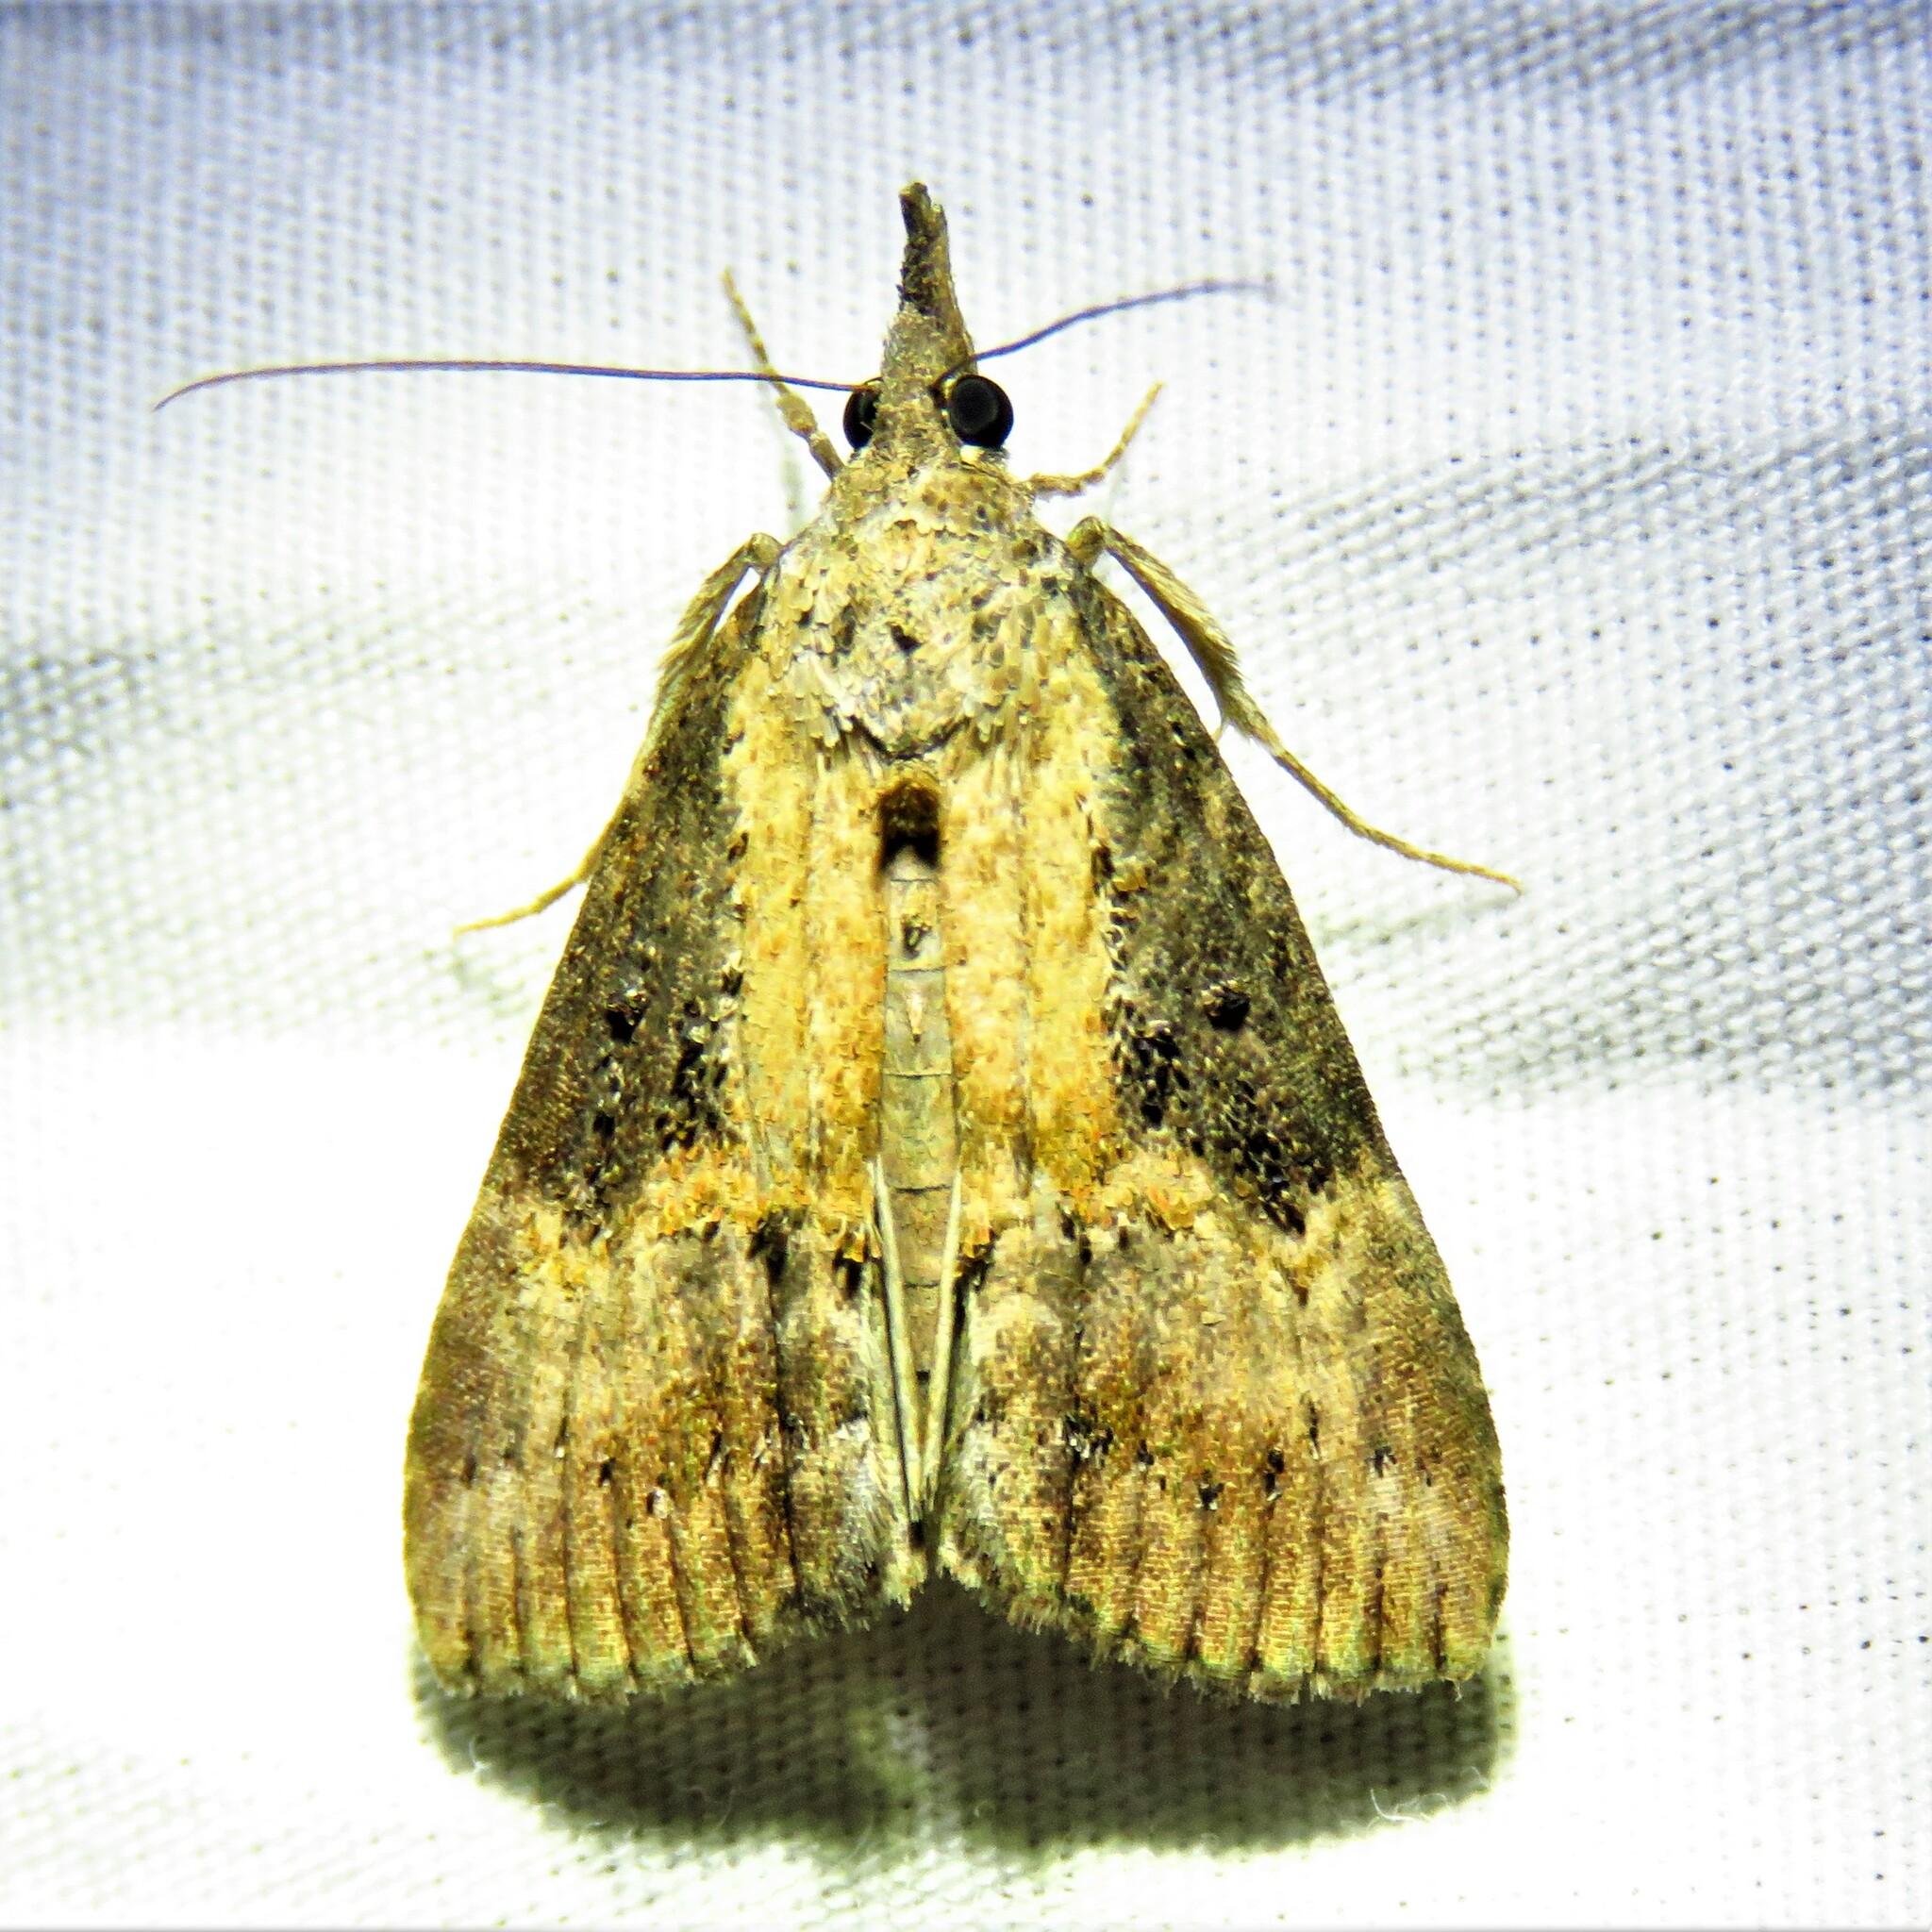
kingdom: Animalia
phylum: Arthropoda
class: Insecta
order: Lepidoptera
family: Erebidae
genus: Hypena
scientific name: Hypena scabra
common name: Green cloverworm
